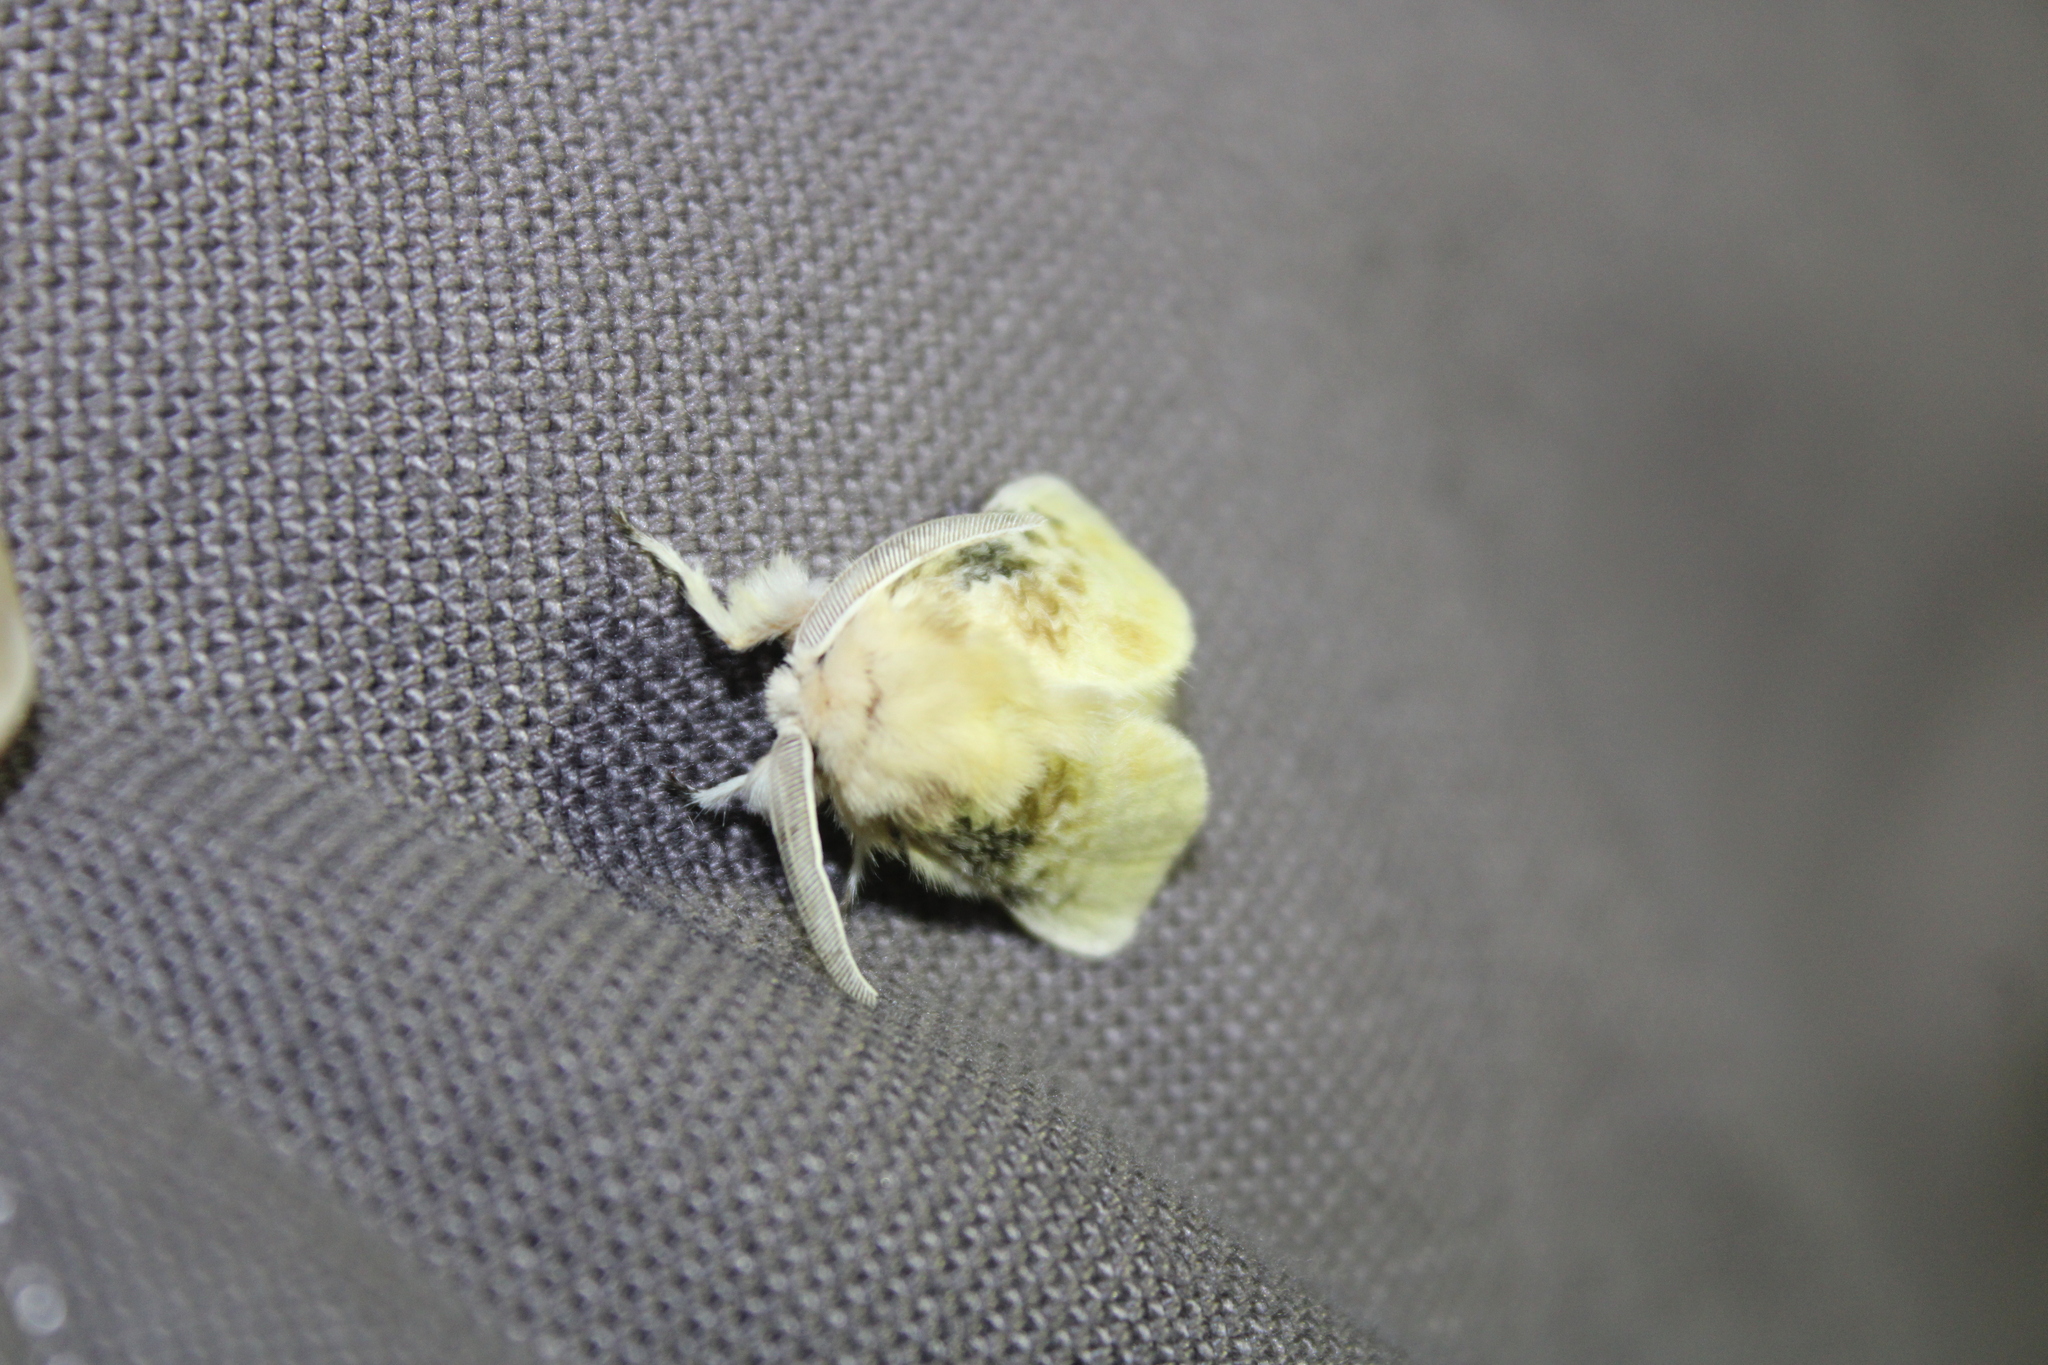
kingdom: Animalia
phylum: Arthropoda
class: Insecta
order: Lepidoptera
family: Megalopygidae
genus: Megalopyge
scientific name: Megalopyge crispata
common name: Black-waved flannel moth
